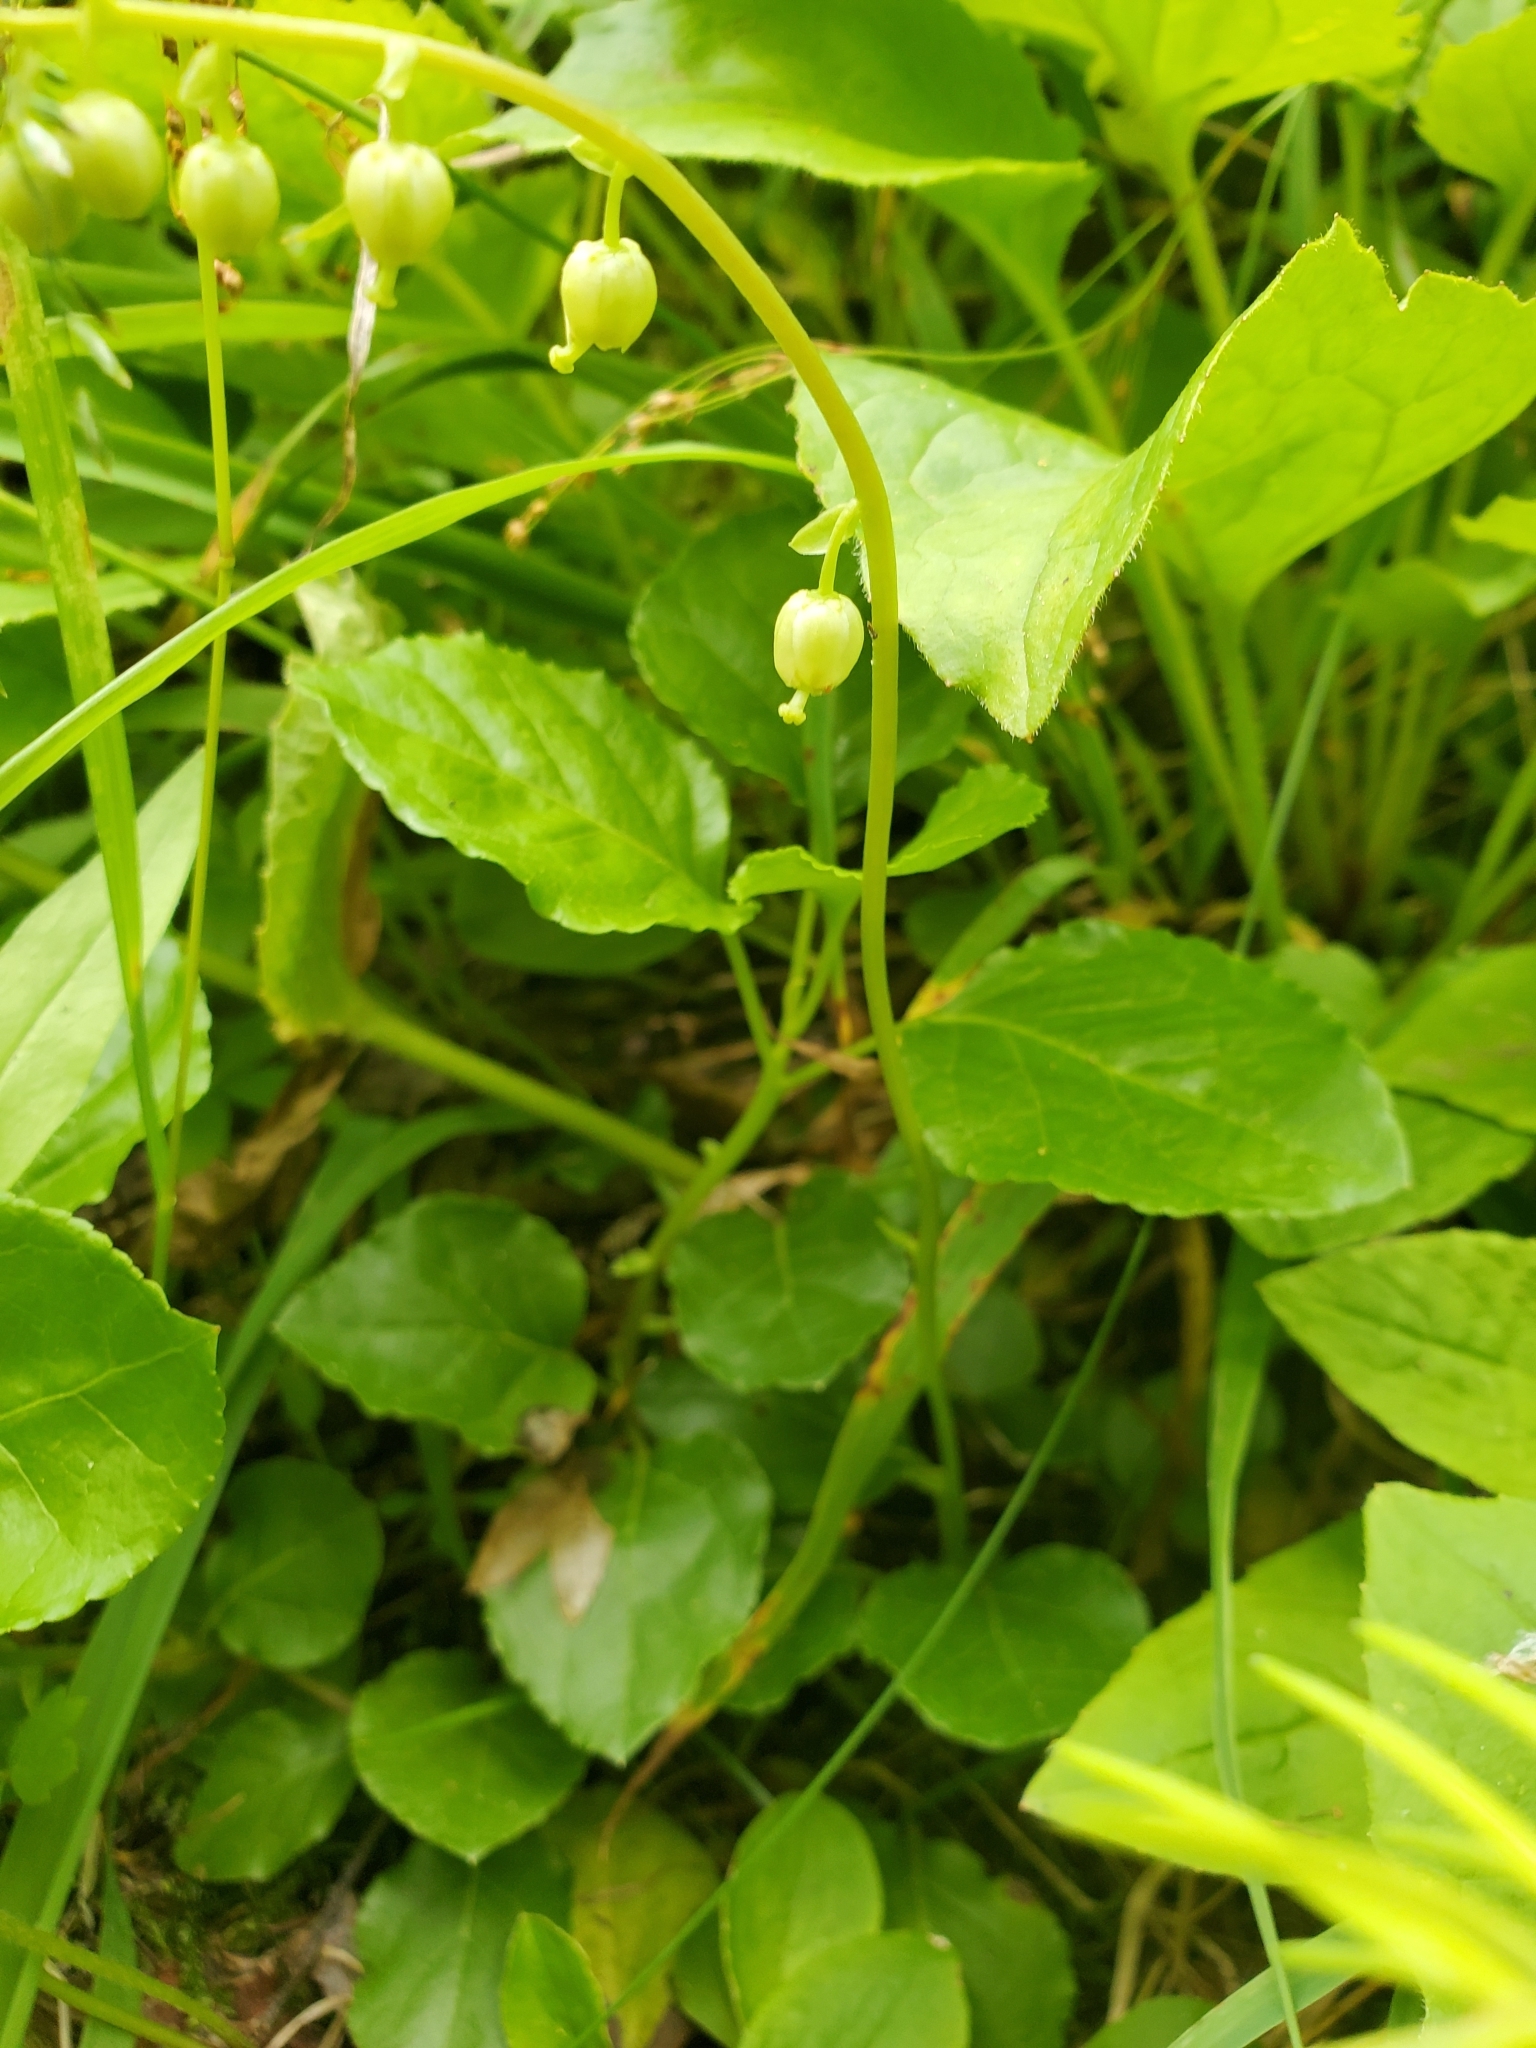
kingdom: Plantae
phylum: Tracheophyta
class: Magnoliopsida
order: Ericales
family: Ericaceae
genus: Orthilia
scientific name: Orthilia secunda
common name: One-sided orthilia
